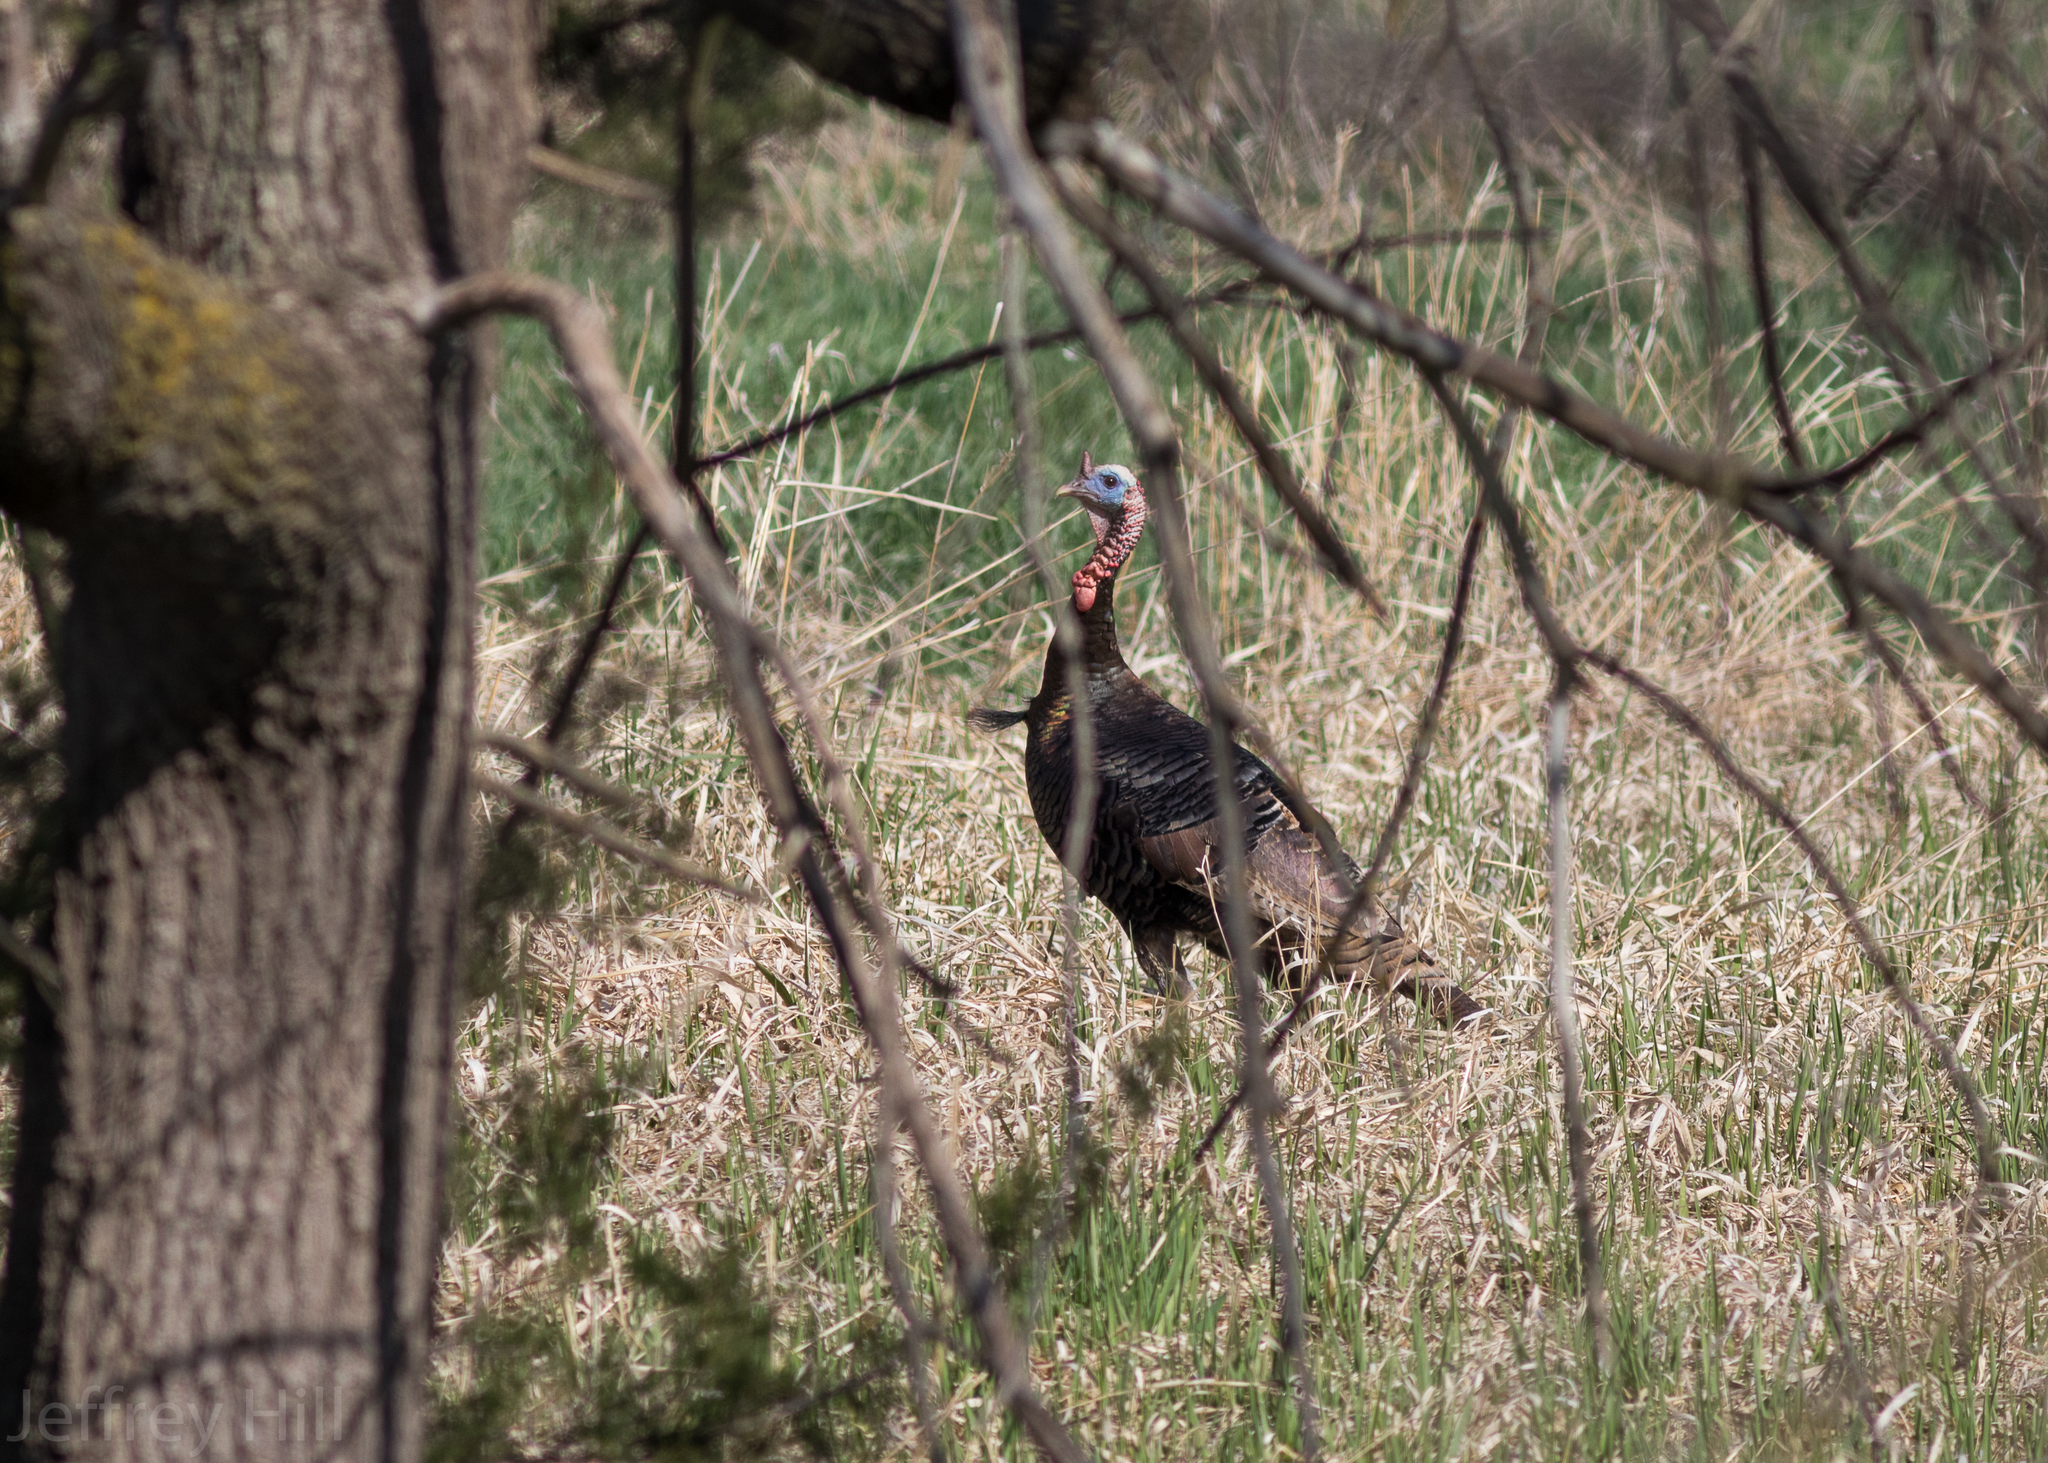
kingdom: Animalia
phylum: Chordata
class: Aves
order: Galliformes
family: Phasianidae
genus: Meleagris
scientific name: Meleagris gallopavo
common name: Wild turkey
